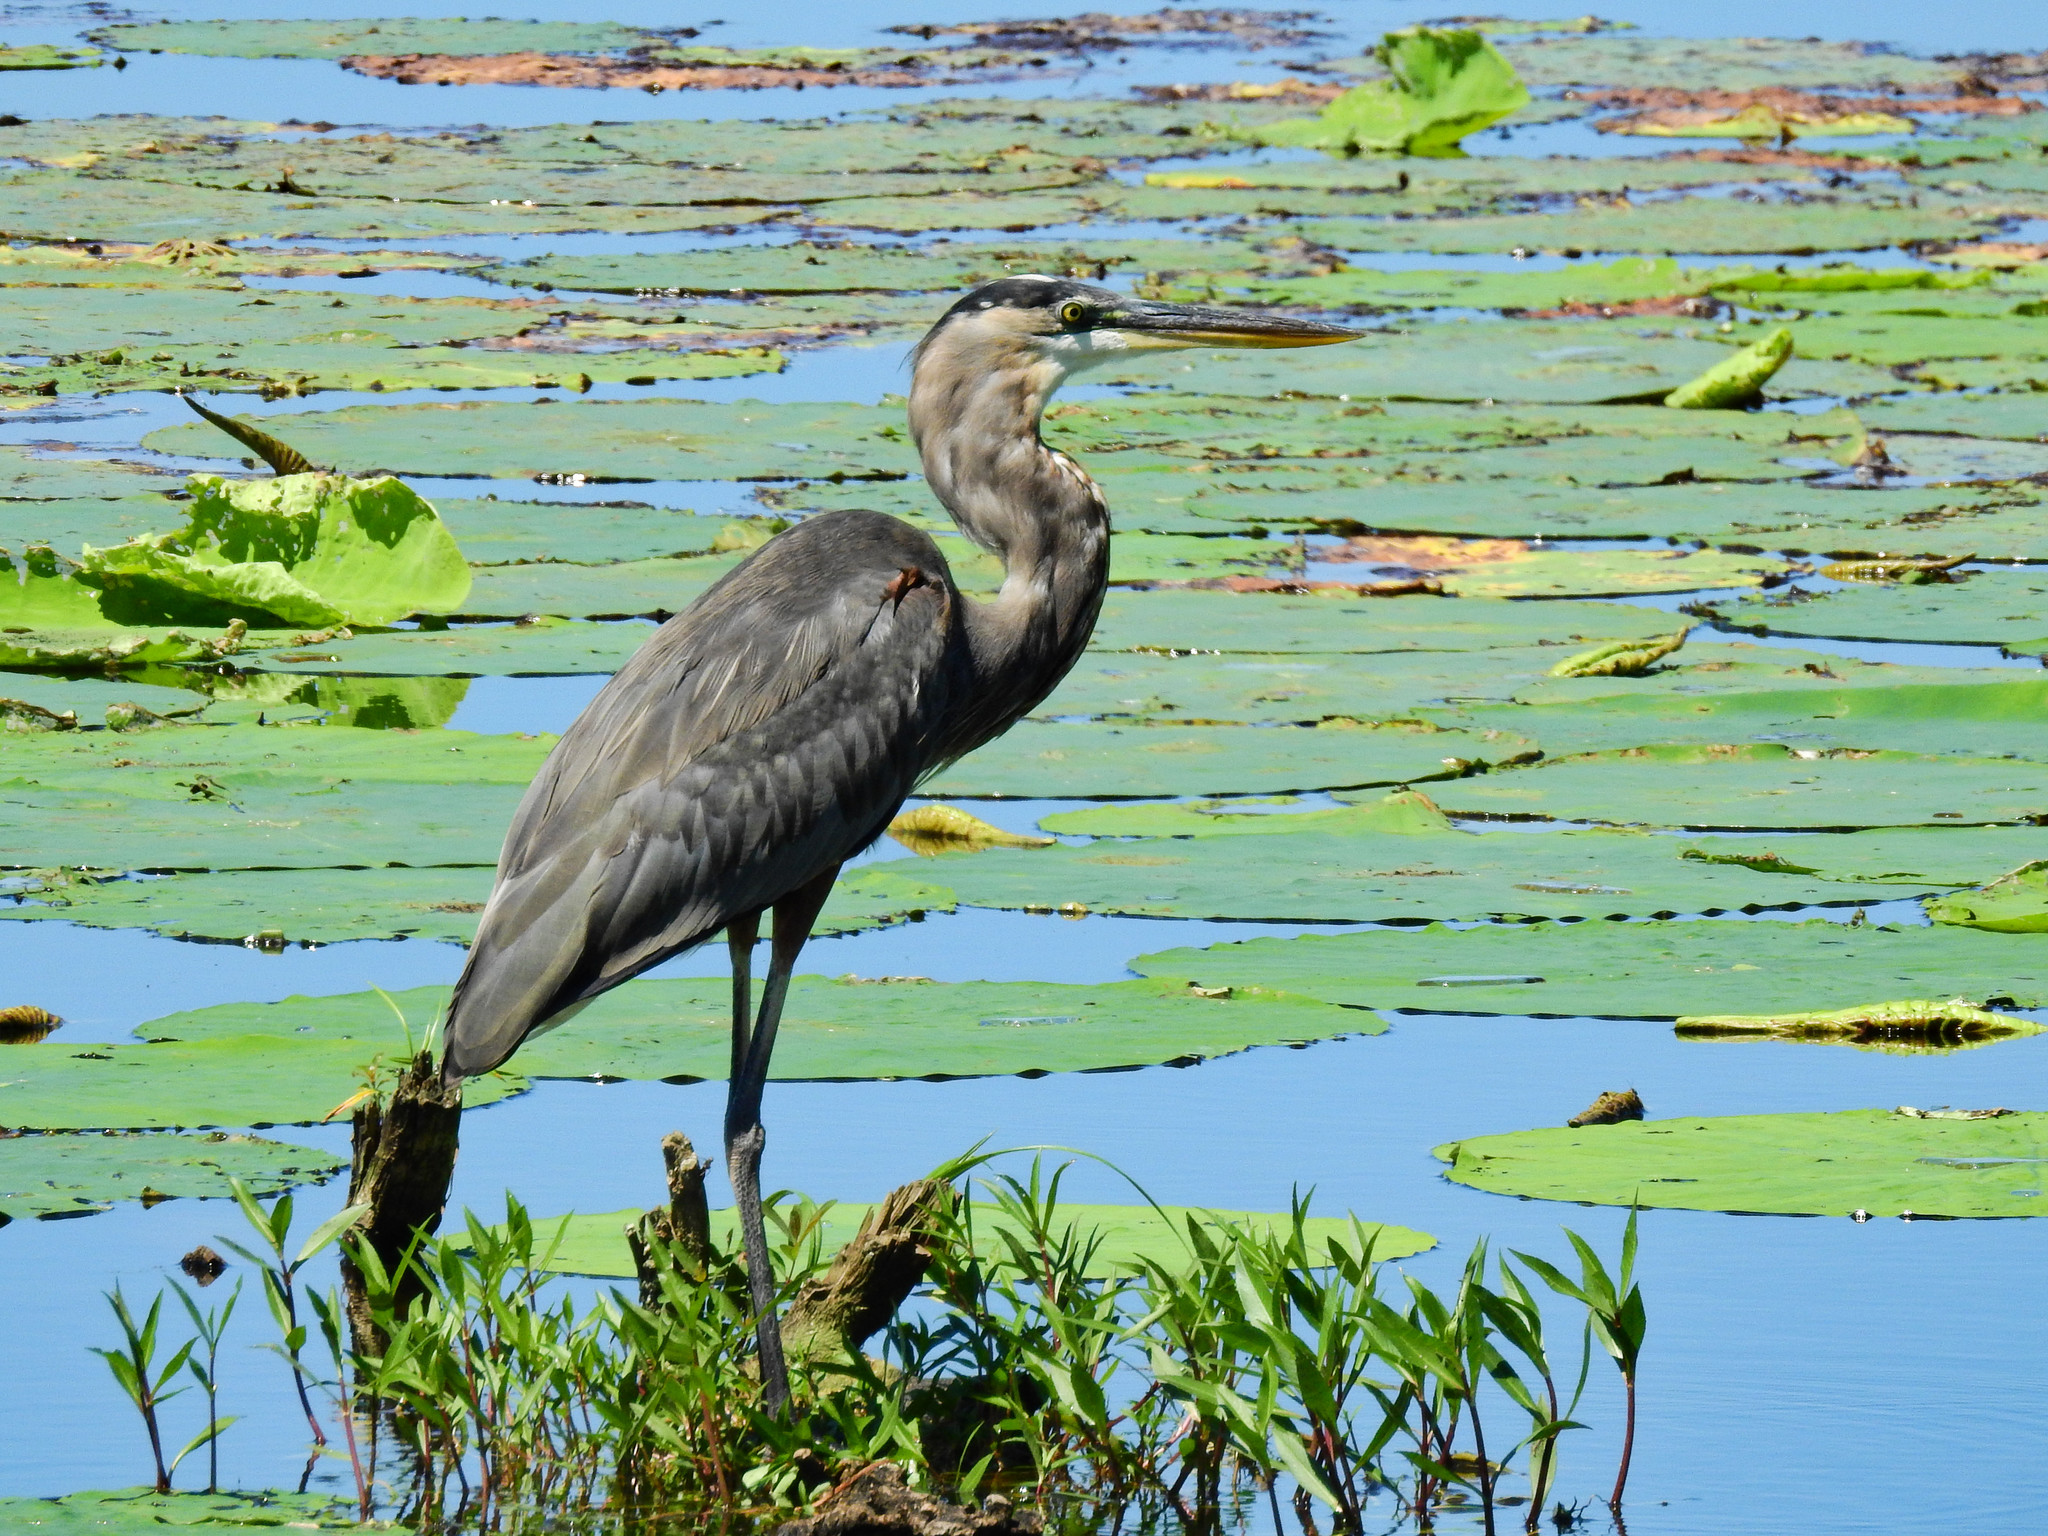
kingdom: Animalia
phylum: Chordata
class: Aves
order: Pelecaniformes
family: Ardeidae
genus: Ardea
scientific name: Ardea herodias
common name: Great blue heron
